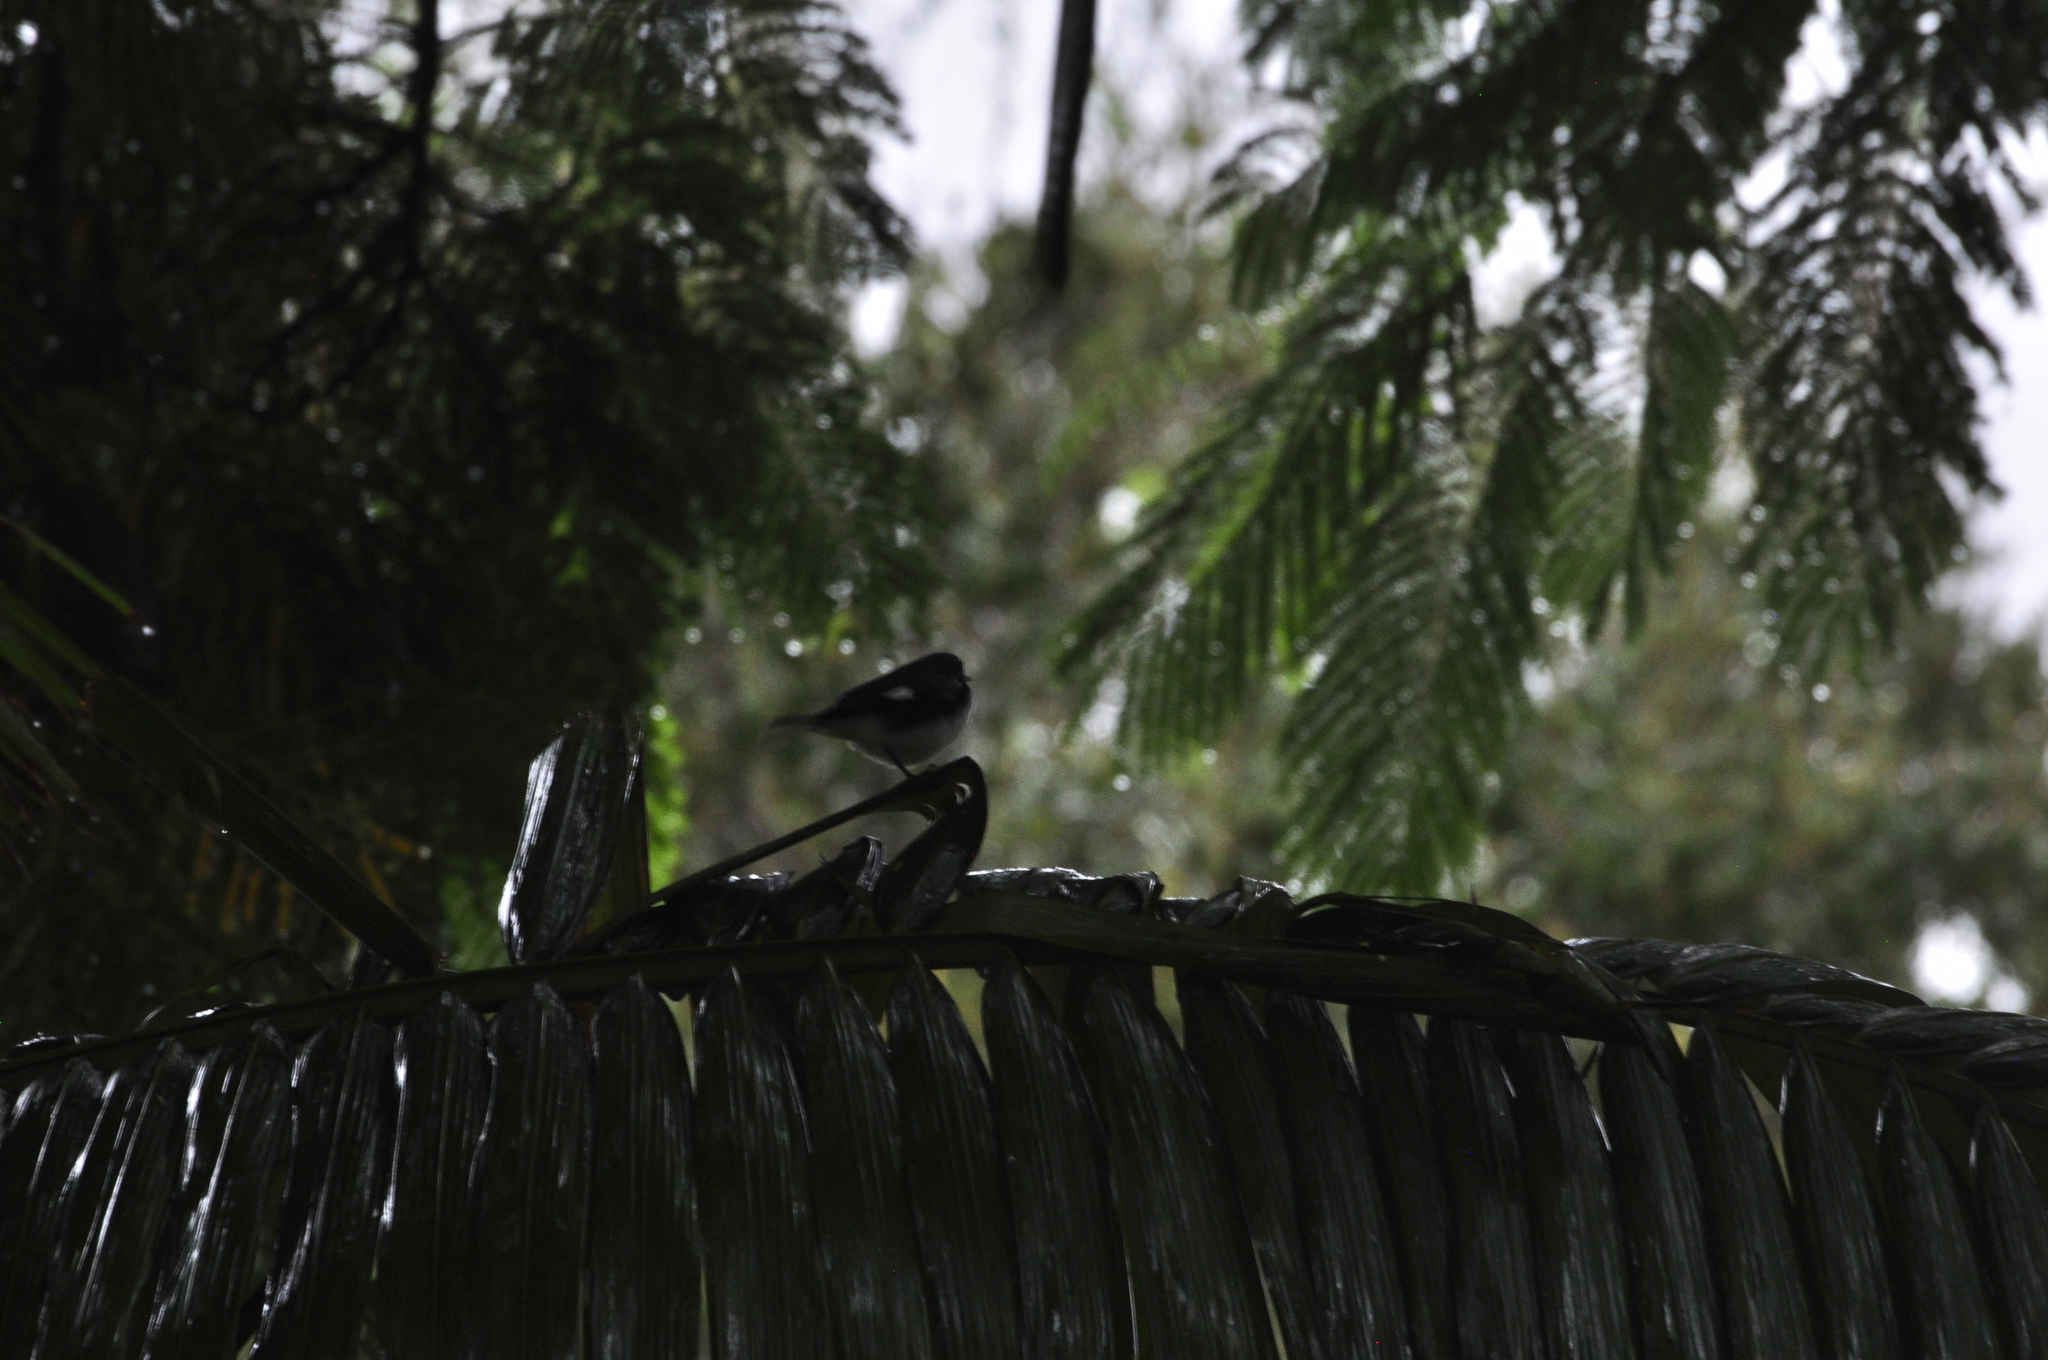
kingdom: Animalia
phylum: Chordata
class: Aves
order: Passeriformes
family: Parulidae
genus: Setophaga
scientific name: Setophaga caerulescens
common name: Black-throated blue warbler
